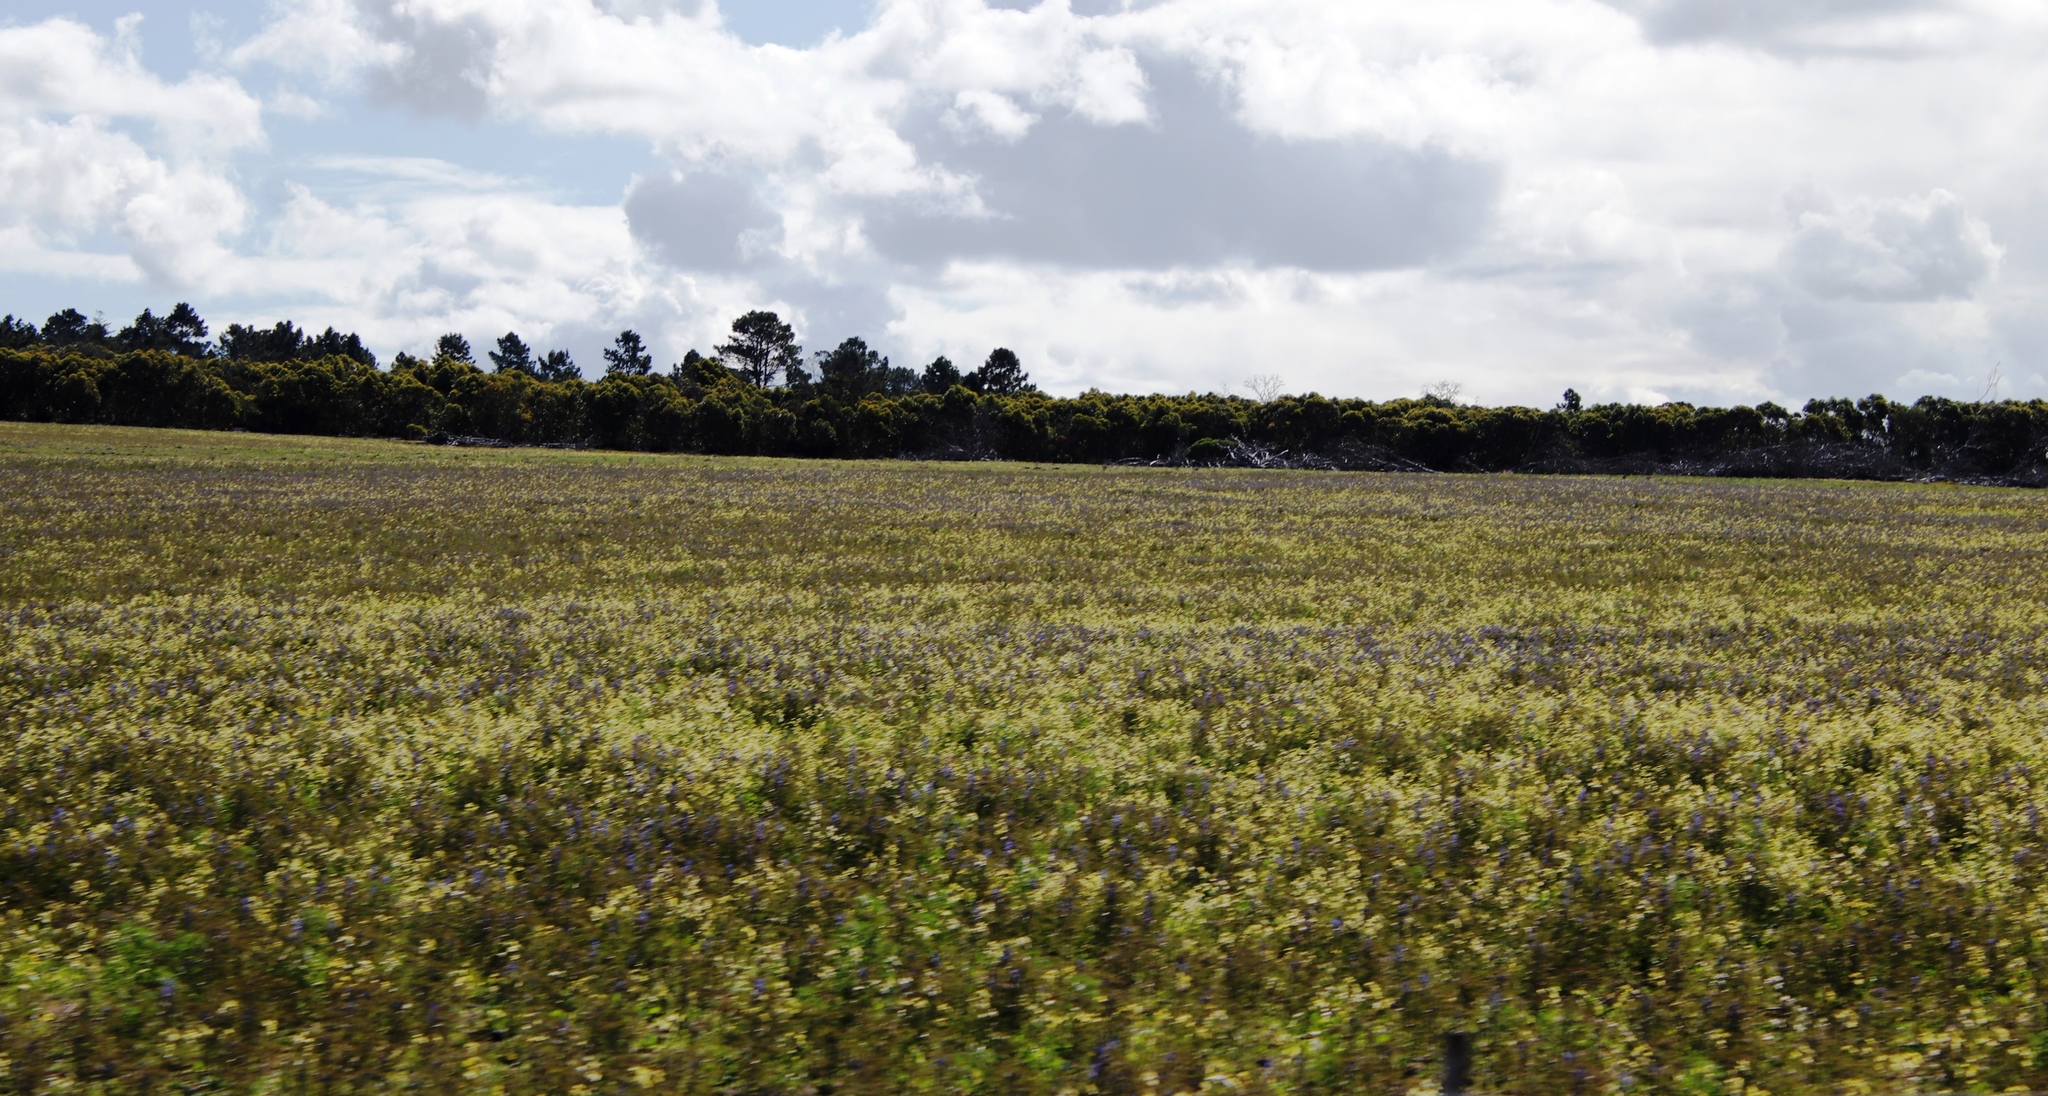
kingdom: Plantae
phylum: Tracheophyta
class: Magnoliopsida
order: Fabales
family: Fabaceae
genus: Lupinus
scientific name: Lupinus angustifolius
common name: Narrow-leaved lupin
